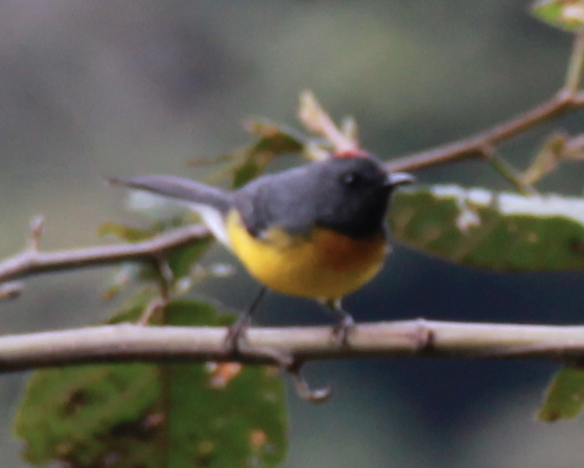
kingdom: Animalia
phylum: Chordata
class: Aves
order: Passeriformes
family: Parulidae
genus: Myioborus
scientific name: Myioborus miniatus
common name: Slate-throated redstart
